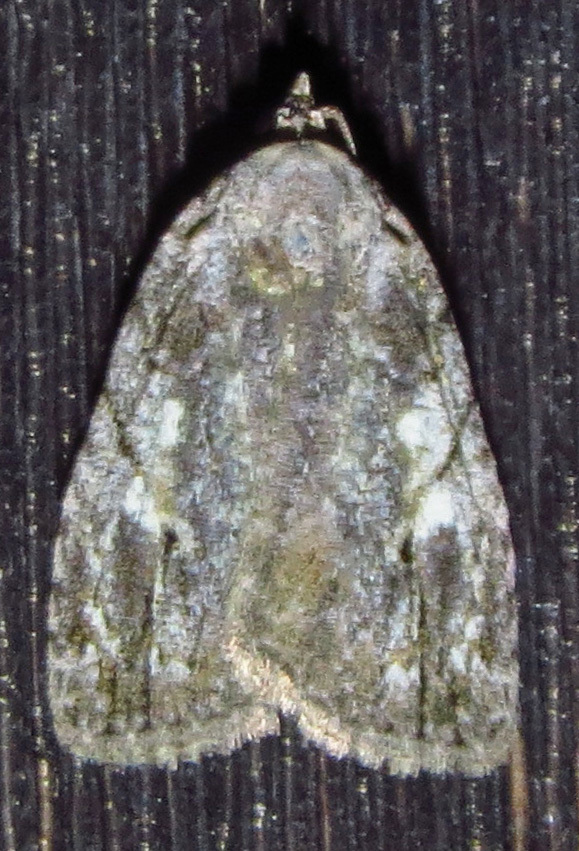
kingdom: Animalia
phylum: Arthropoda
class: Insecta
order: Lepidoptera
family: Noctuidae
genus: Balsa
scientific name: Balsa labecula
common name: White-blotched balsa moth
